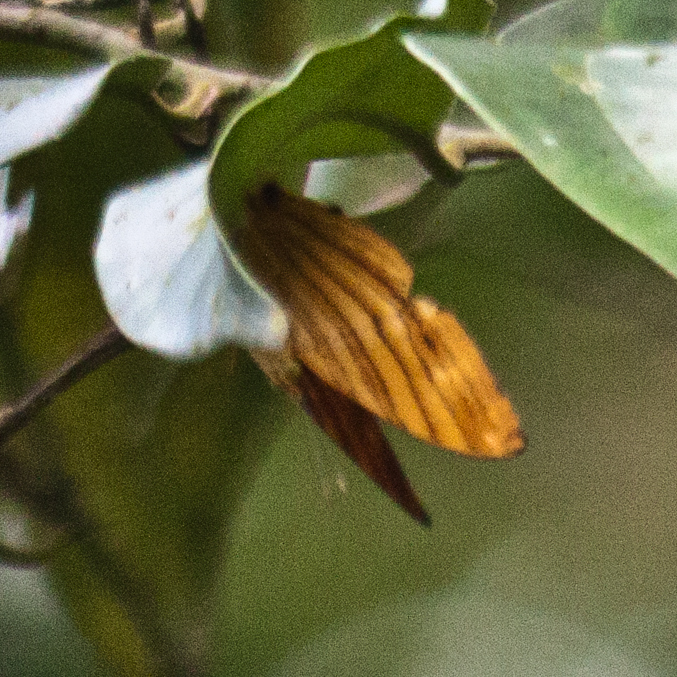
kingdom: Animalia
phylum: Arthropoda
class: Insecta
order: Lepidoptera
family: Nymphalidae
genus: Chersonesia
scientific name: Chersonesia risa
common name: Common maplet
